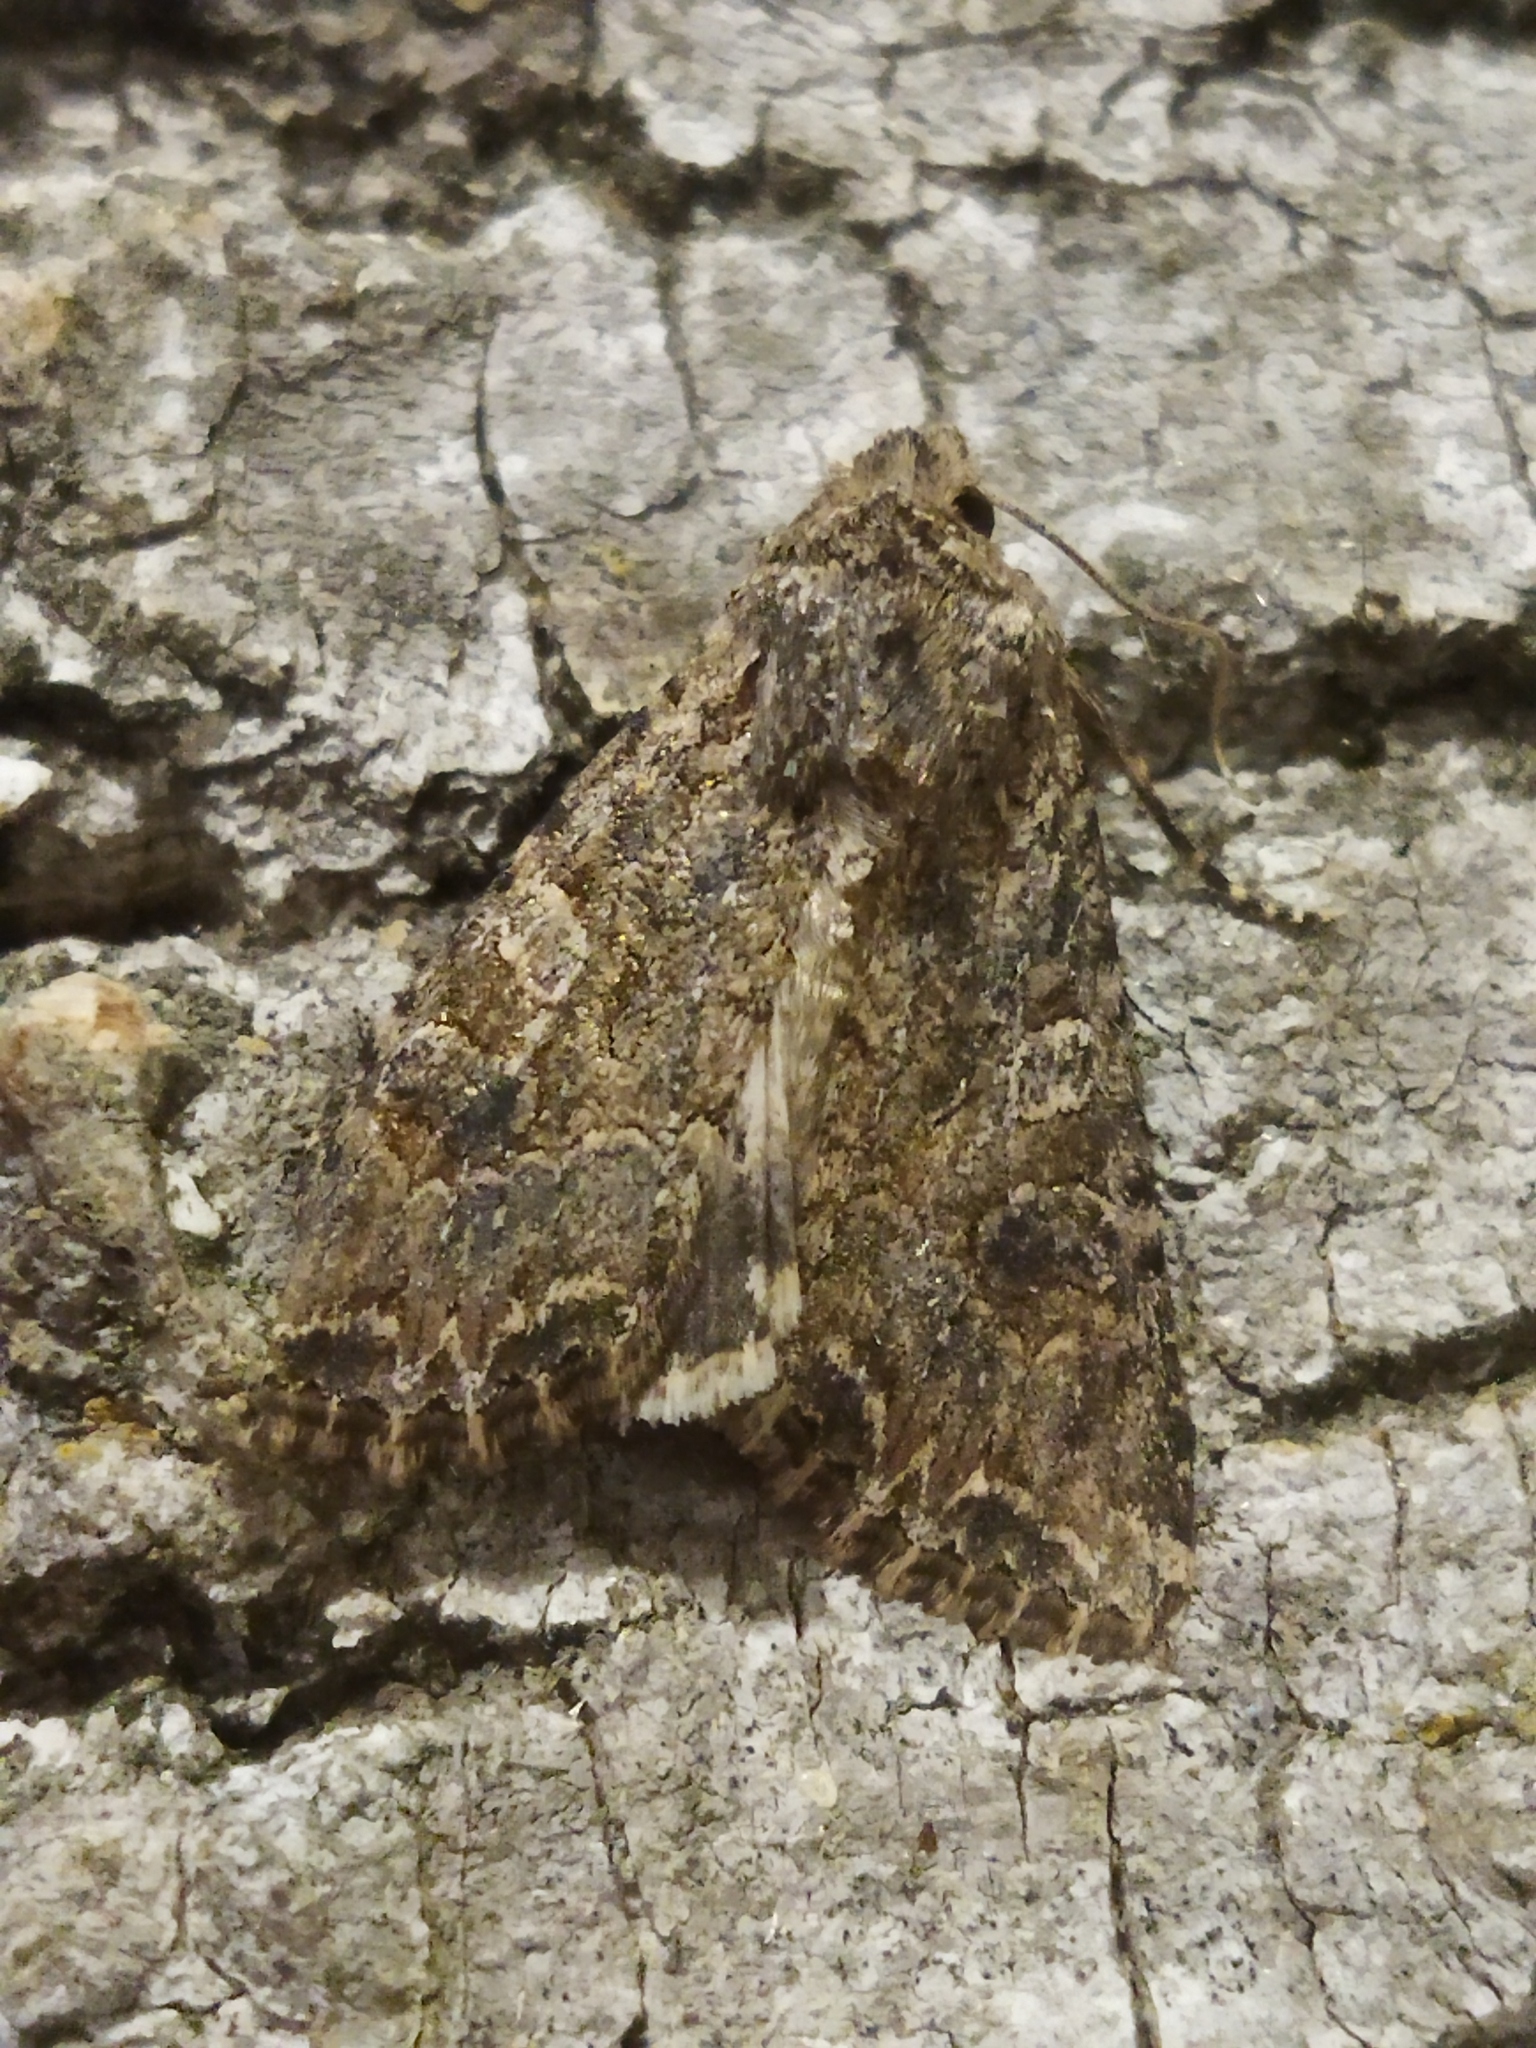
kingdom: Animalia
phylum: Arthropoda
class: Insecta
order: Lepidoptera
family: Noctuidae
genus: Anarta
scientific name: Anarta trifolii
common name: Clover cutworm moth
